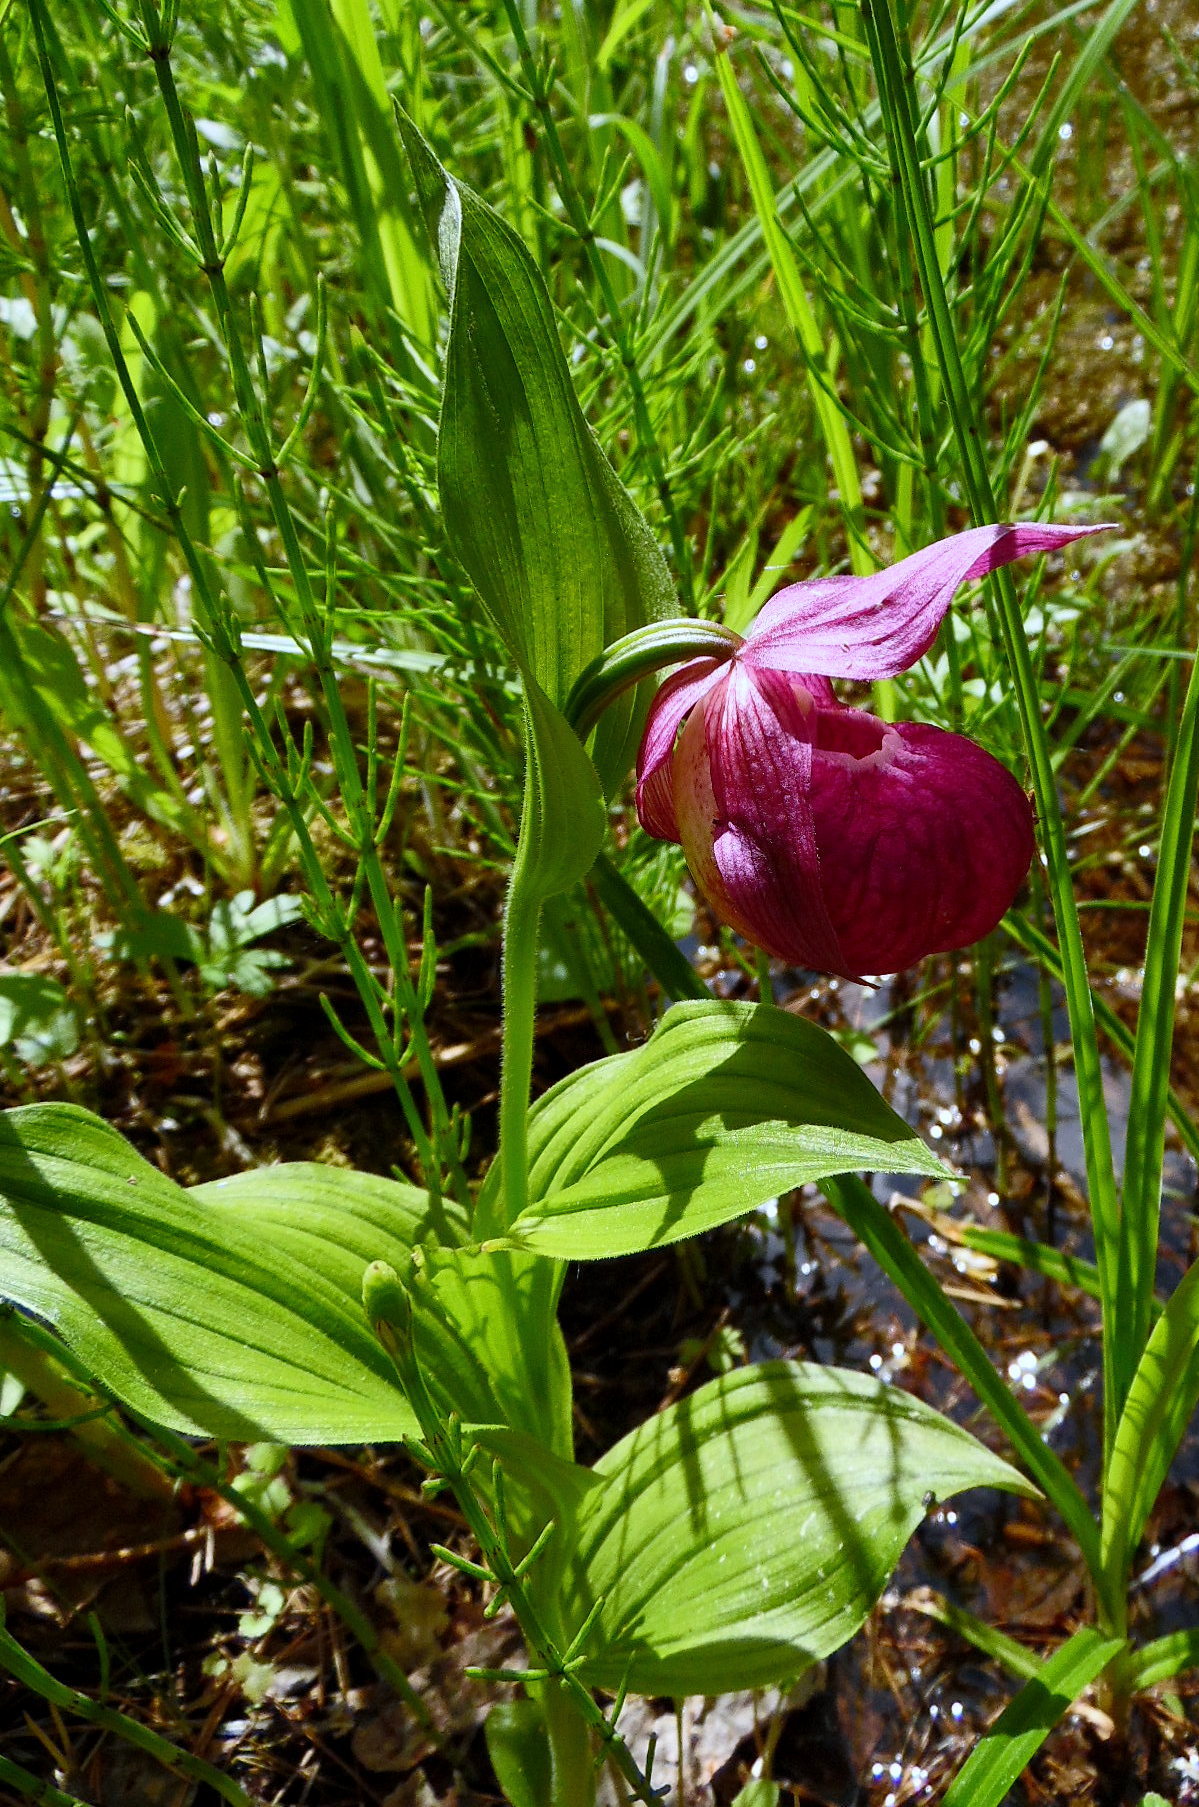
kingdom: Plantae
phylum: Tracheophyta
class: Liliopsida
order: Asparagales
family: Orchidaceae
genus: Cypripedium
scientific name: Cypripedium macranthos
